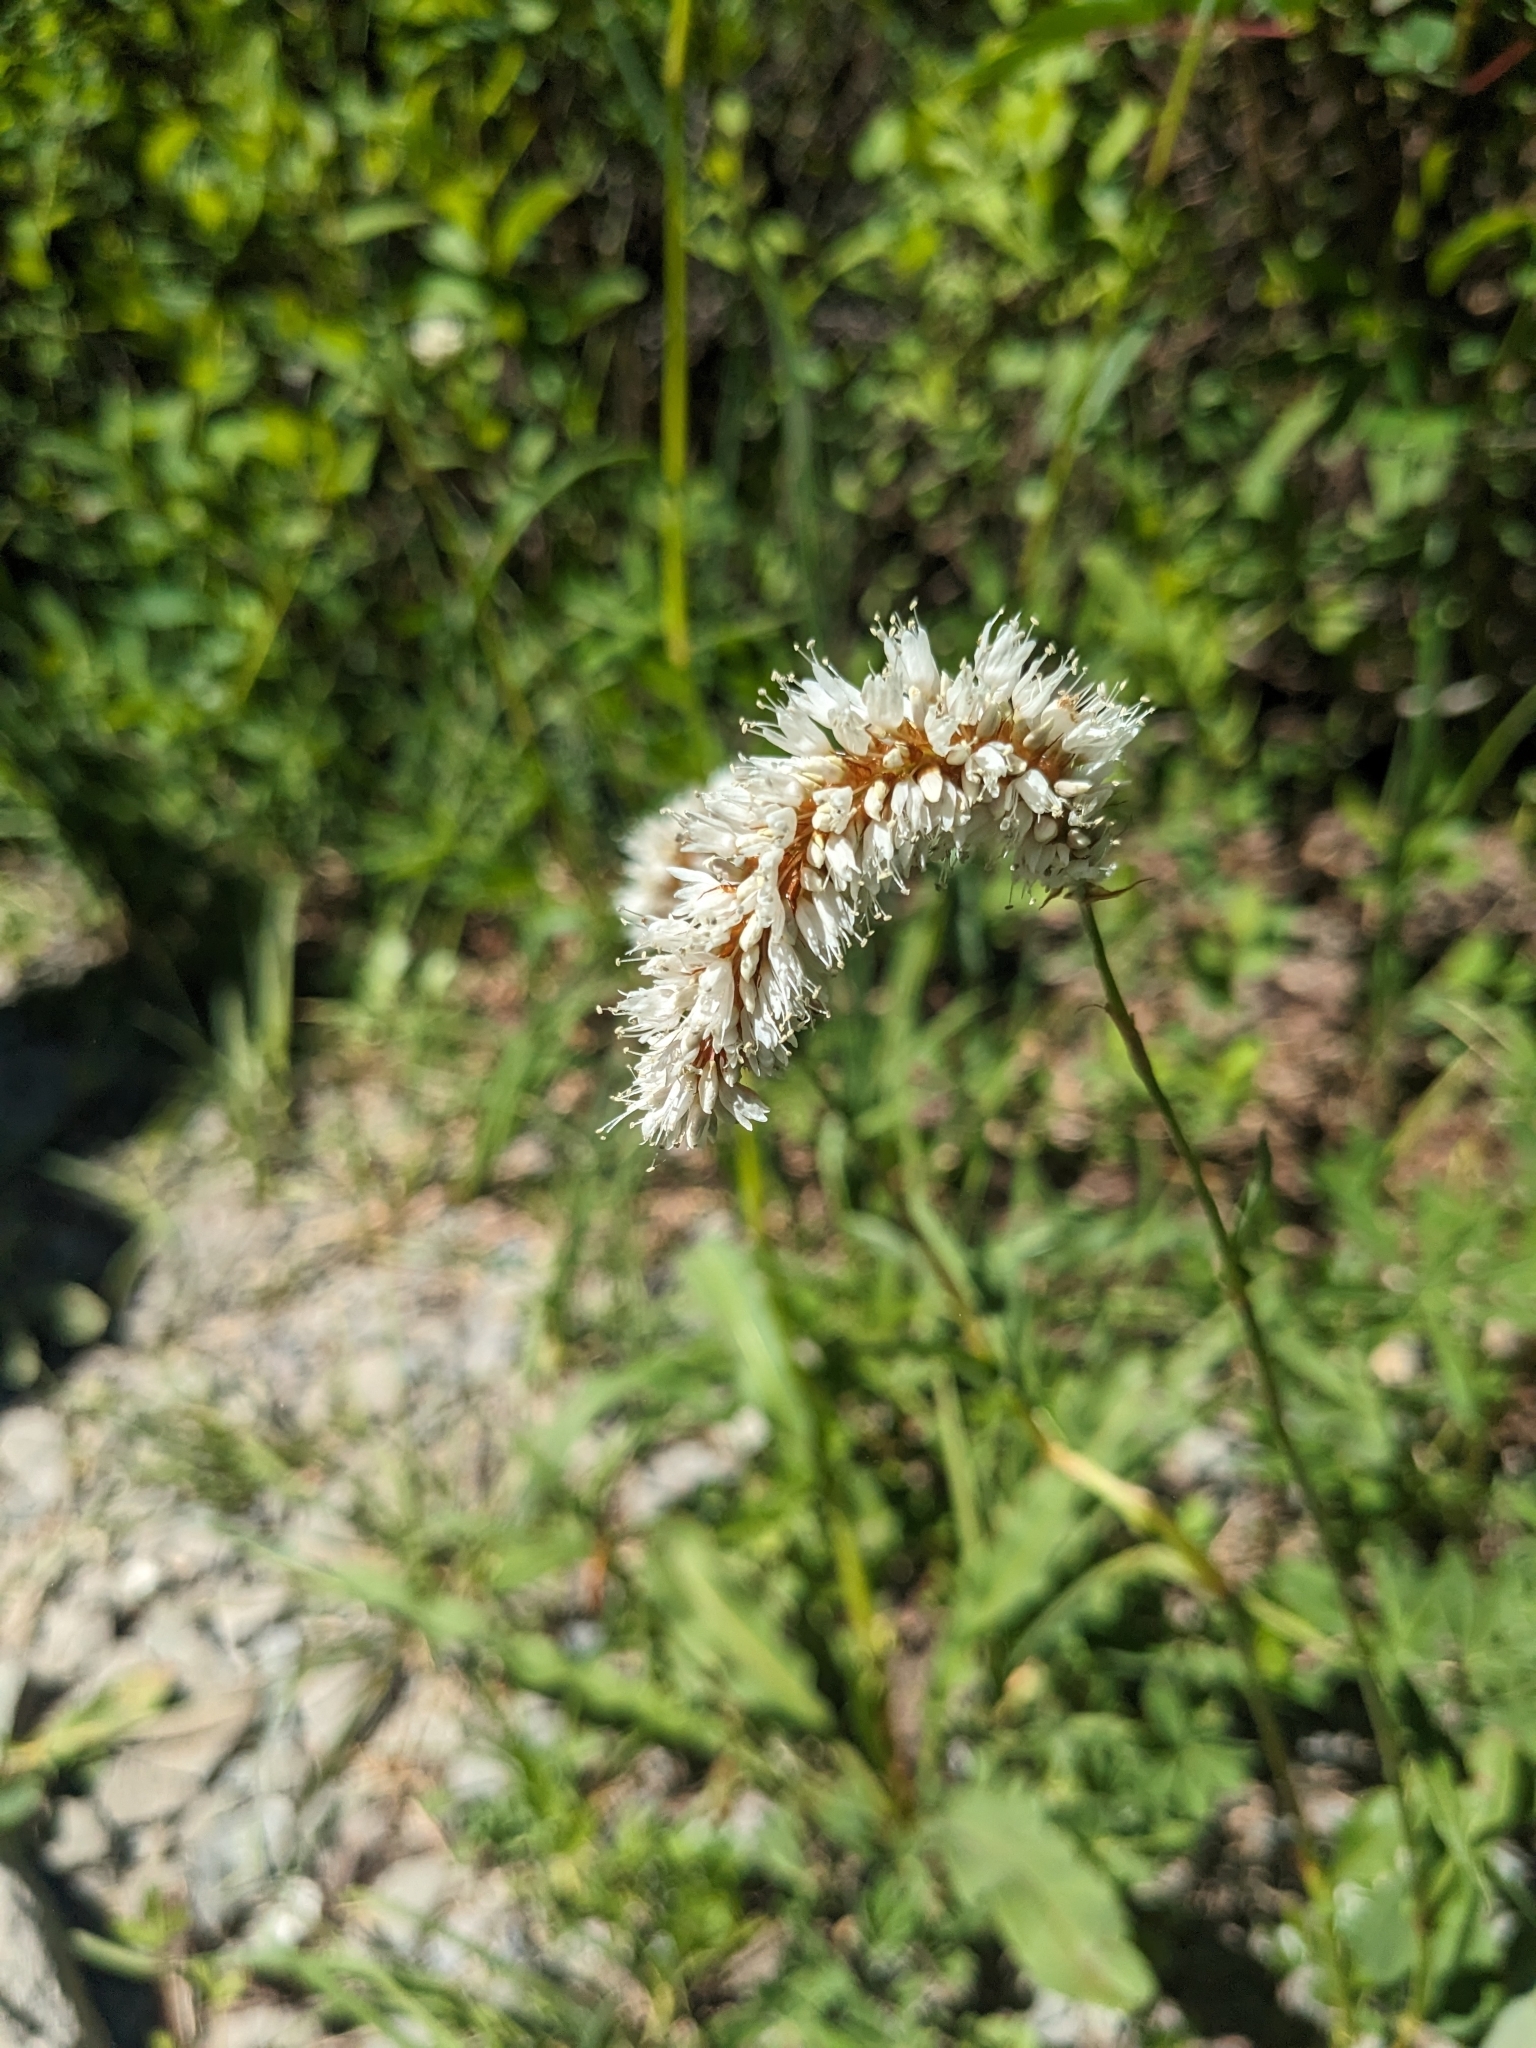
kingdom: Plantae
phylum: Tracheophyta
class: Magnoliopsida
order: Caryophyllales
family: Polygonaceae
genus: Bistorta
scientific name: Bistorta bistortoides
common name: American bistort
